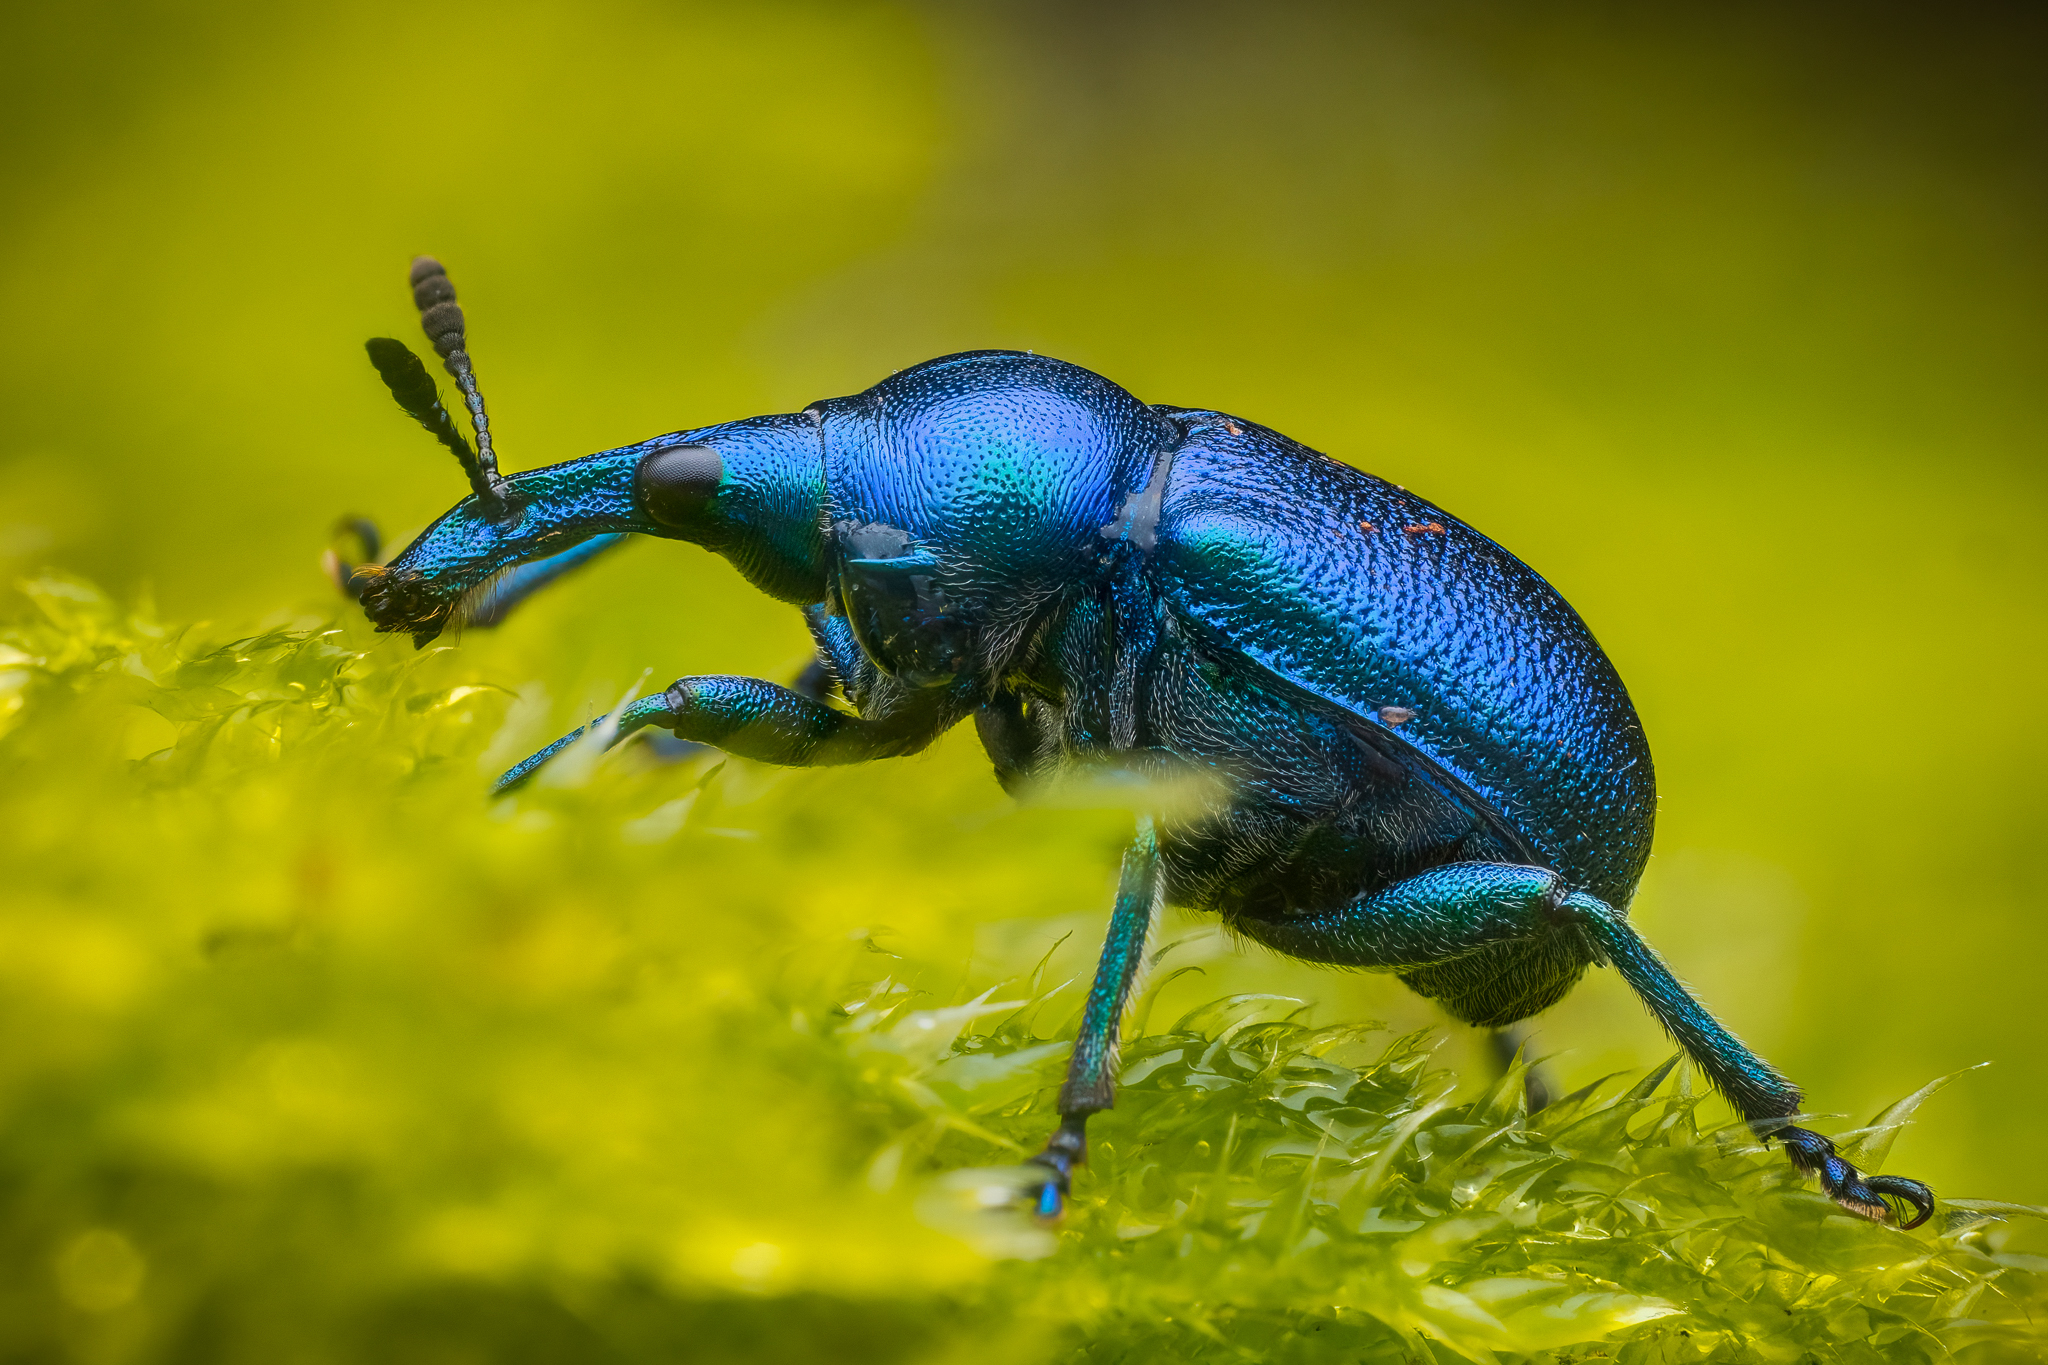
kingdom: Animalia
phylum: Arthropoda
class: Insecta
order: Coleoptera
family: Attelabidae
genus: Byctiscus
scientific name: Byctiscus betulae
